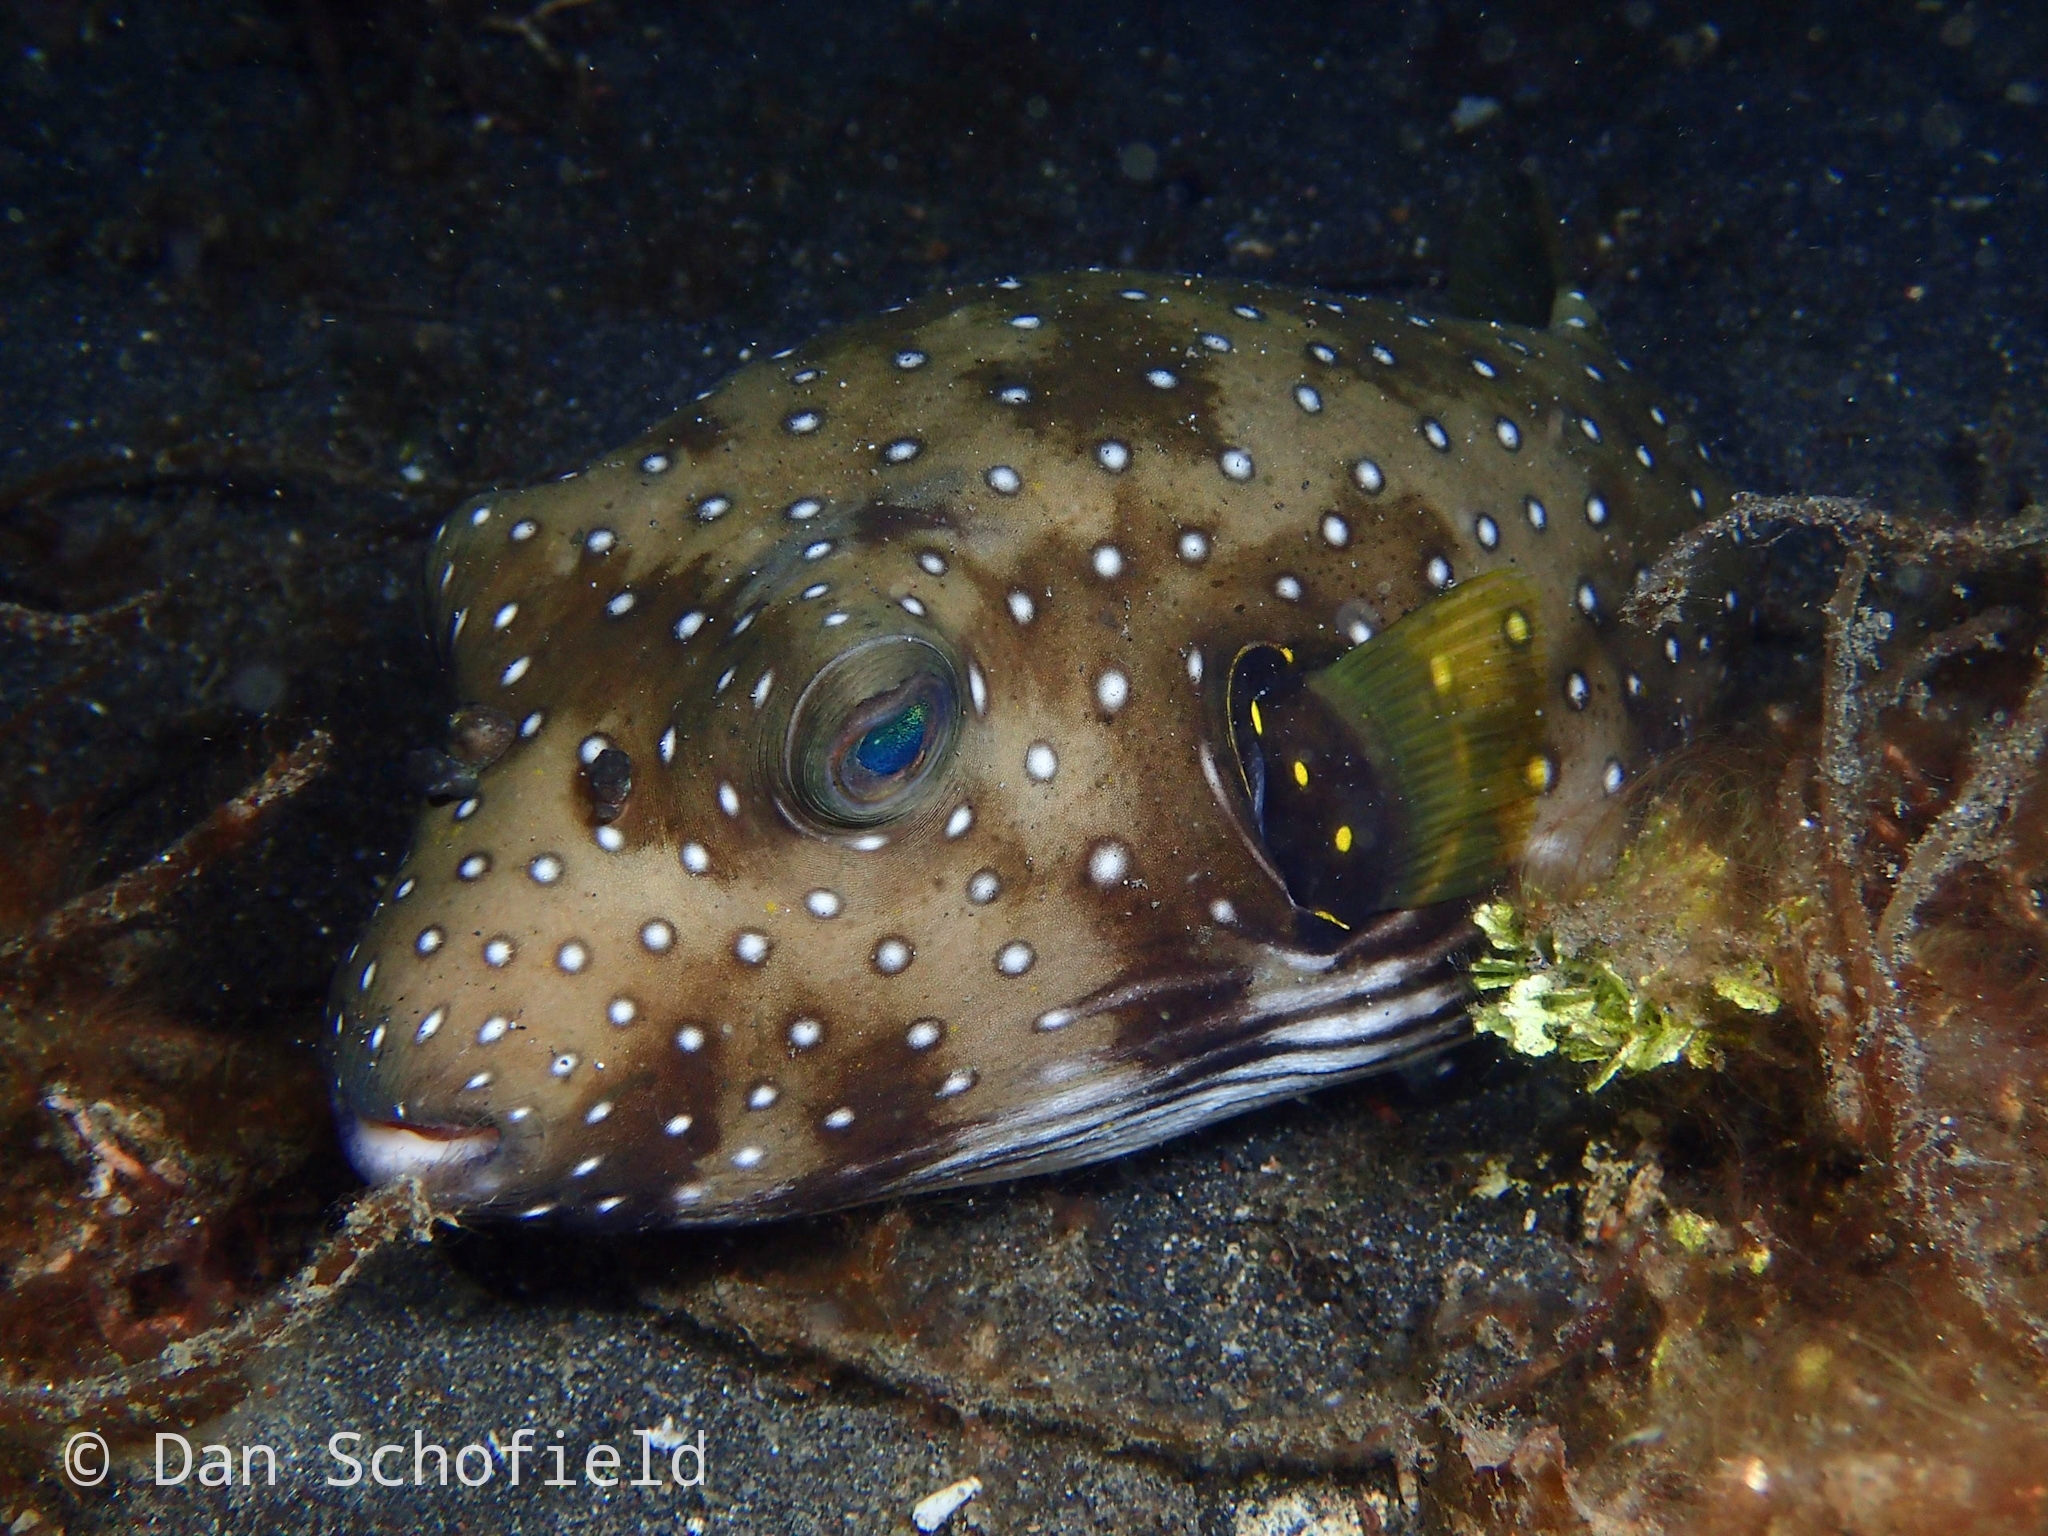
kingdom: Animalia
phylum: Chordata
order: Tetraodontiformes
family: Tetraodontidae
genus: Arothron
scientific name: Arothron hispidus
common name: Stripebelly puffer
